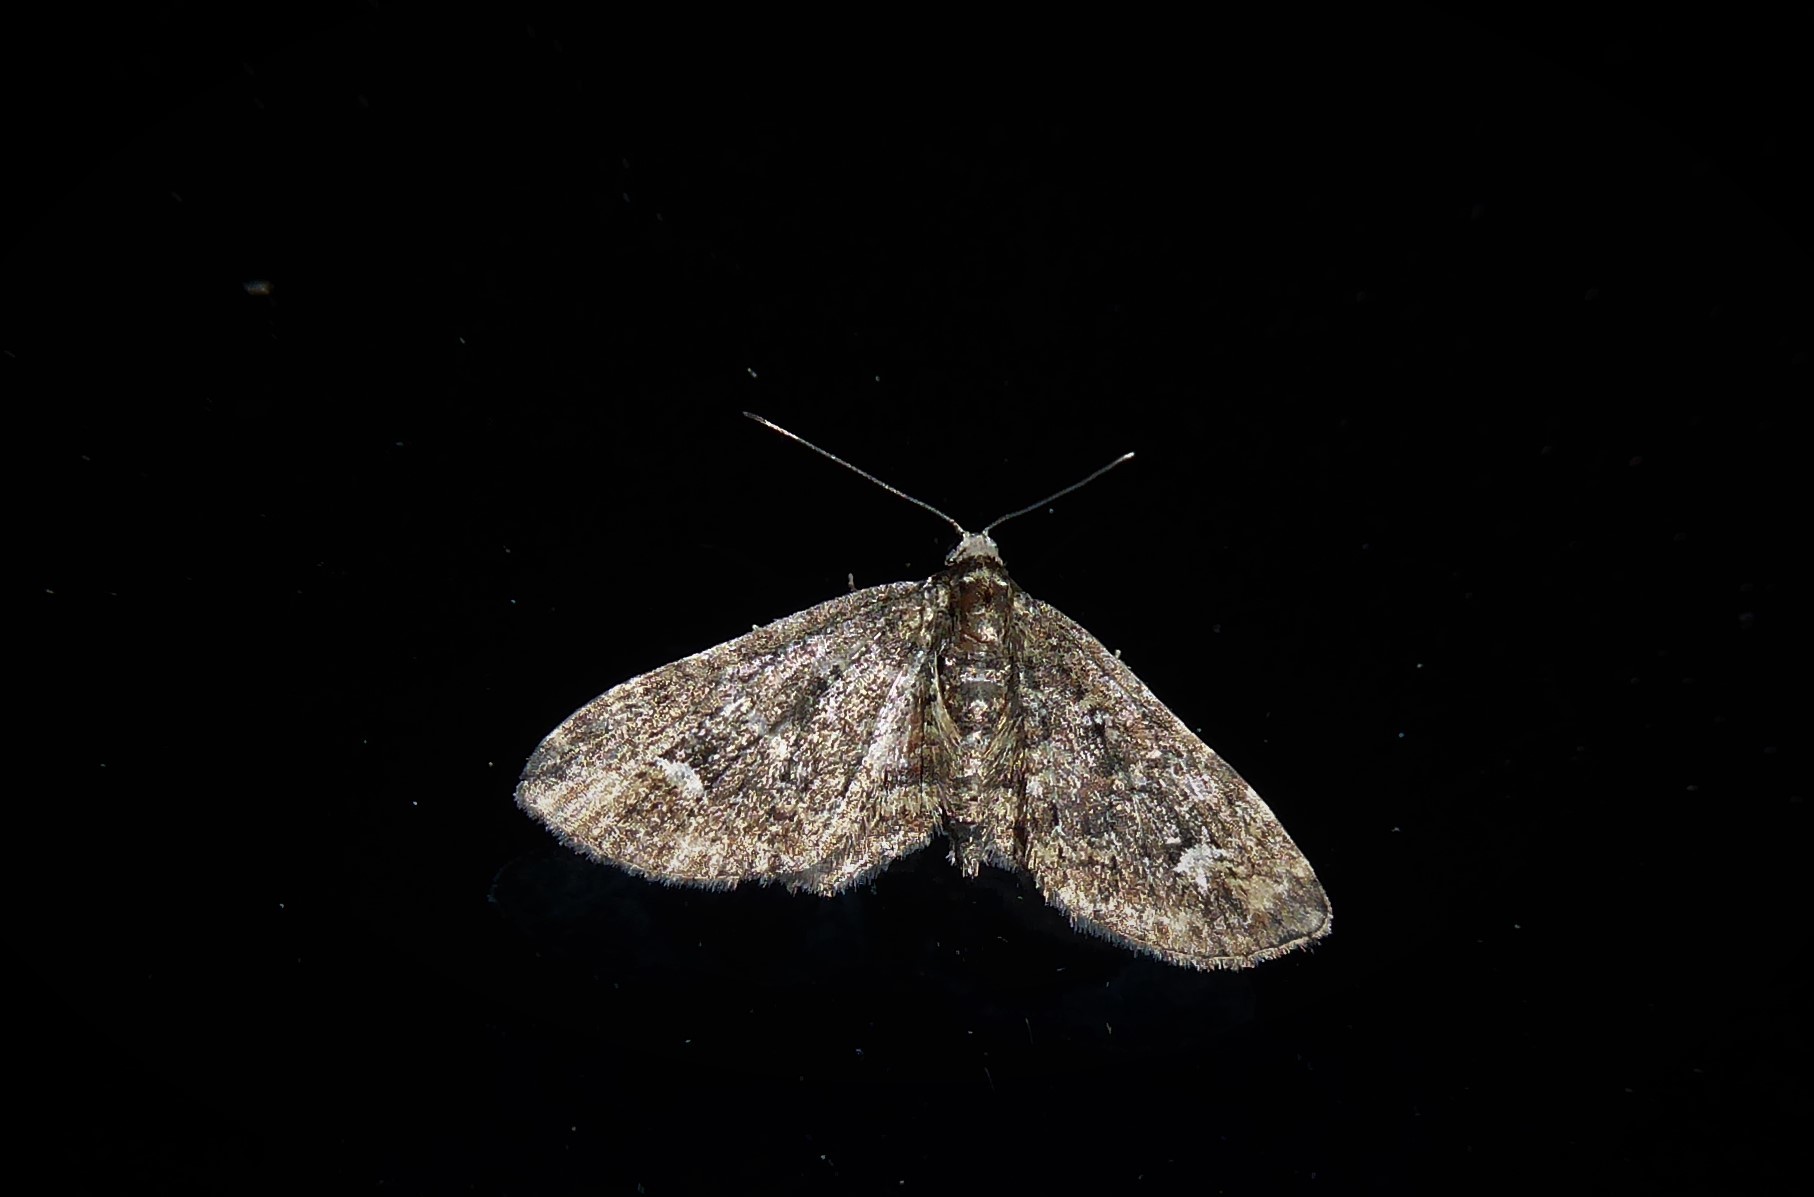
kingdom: Animalia
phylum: Arthropoda
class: Insecta
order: Lepidoptera
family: Geometridae
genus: Pasiphilodes
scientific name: Pasiphilodes testulata
